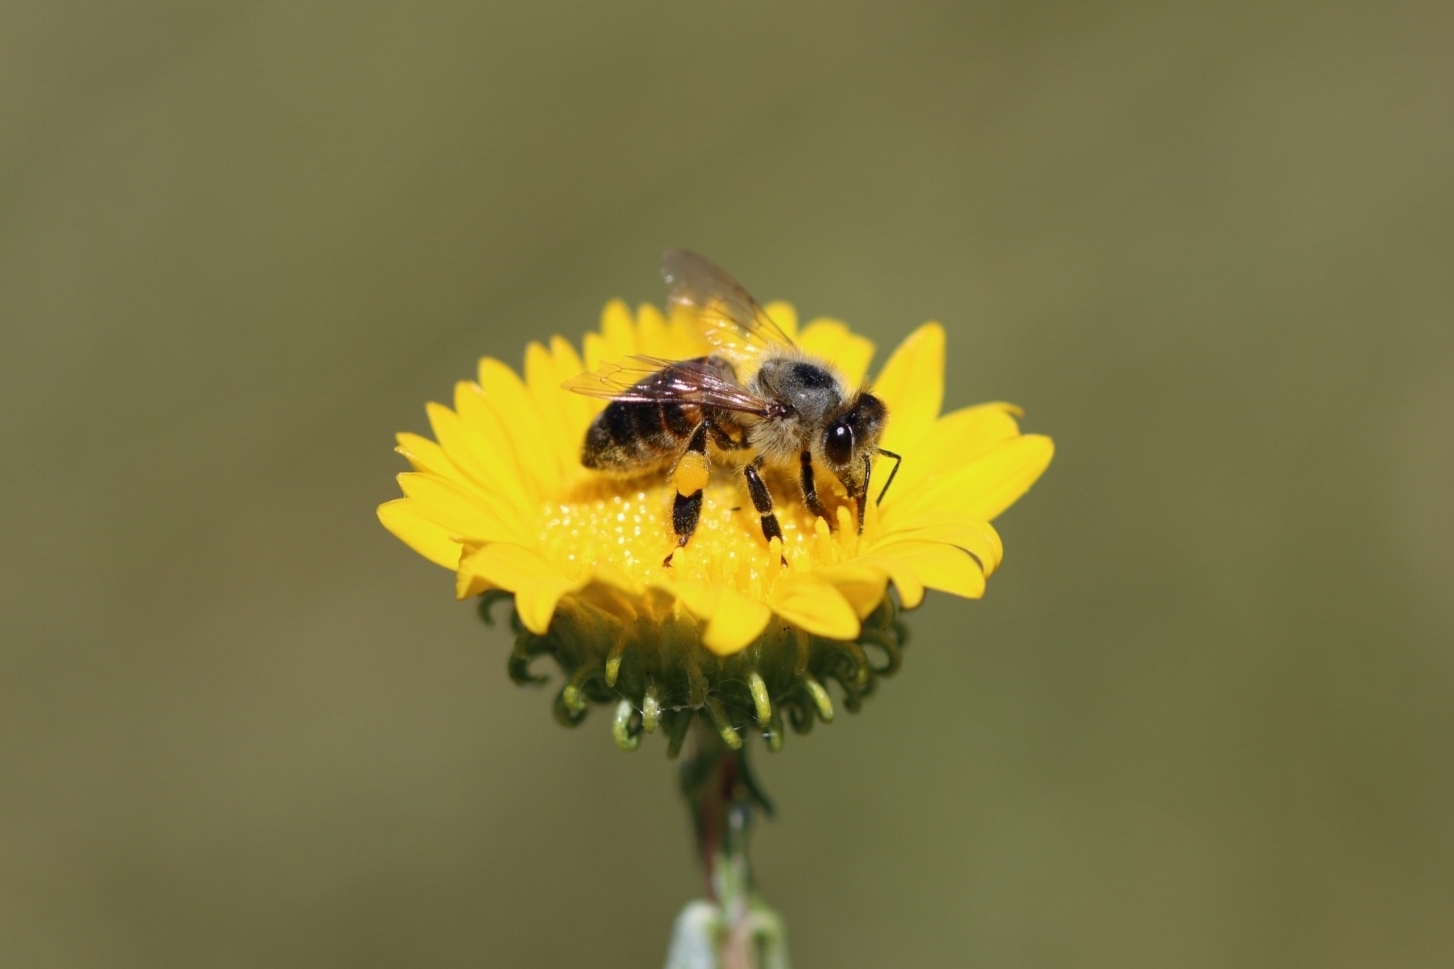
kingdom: Animalia
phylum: Arthropoda
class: Insecta
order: Hymenoptera
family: Apidae
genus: Apis
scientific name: Apis mellifera
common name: Honey bee
